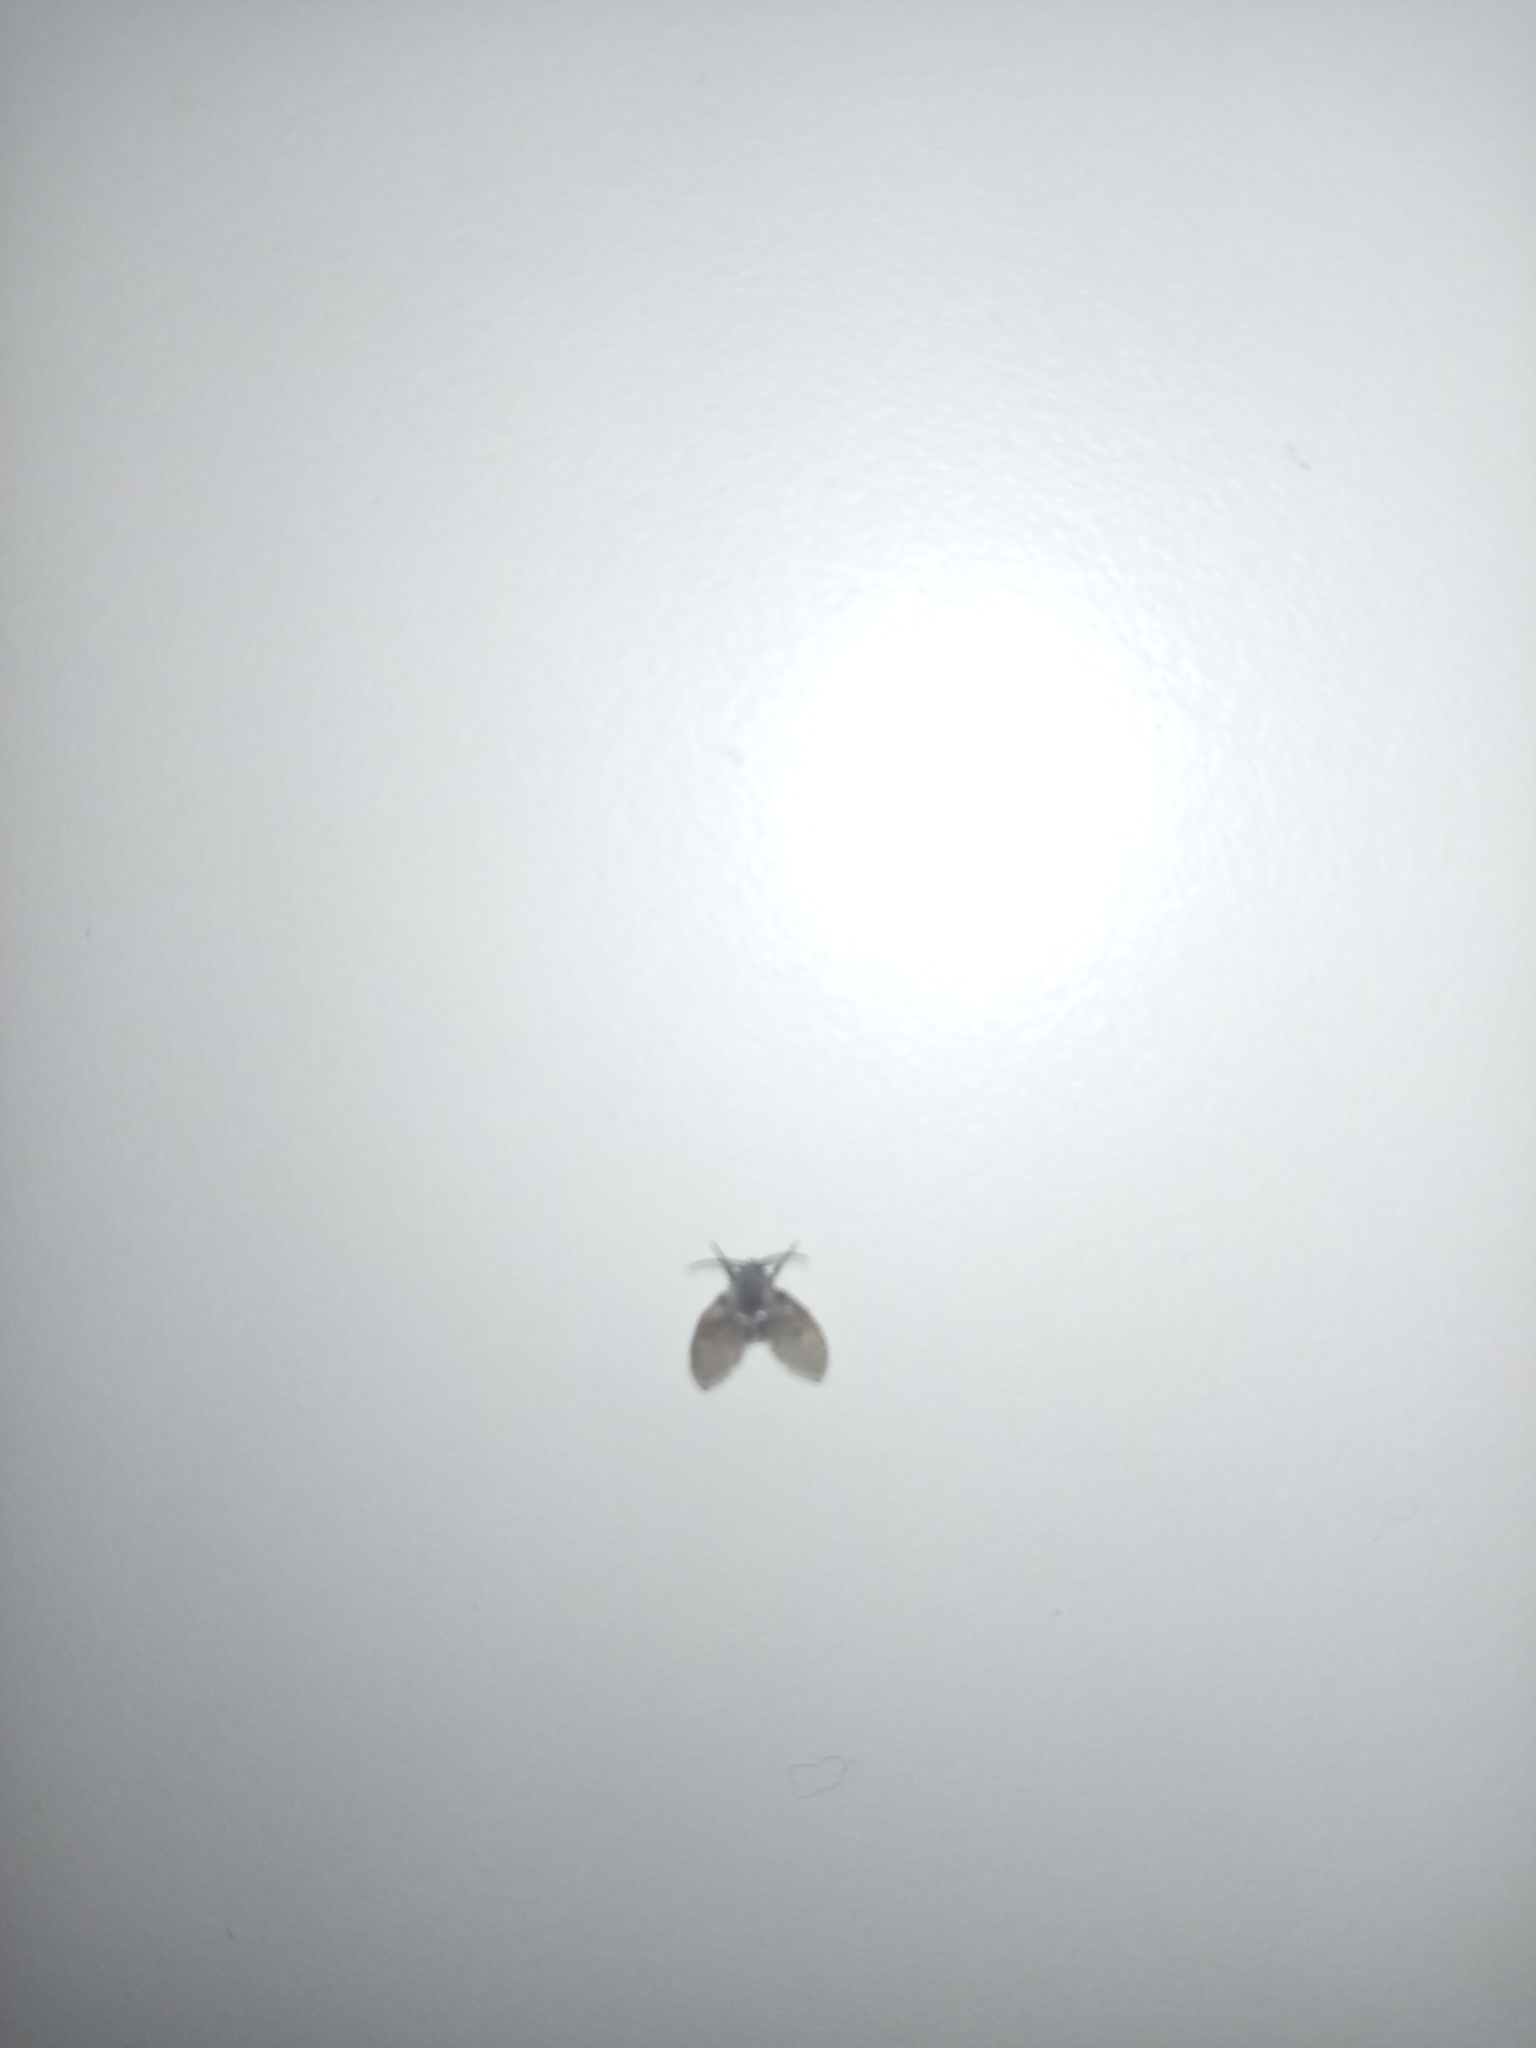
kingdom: Animalia
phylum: Arthropoda
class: Insecta
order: Diptera
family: Psychodidae
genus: Clogmia
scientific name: Clogmia albipunctatus
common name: White-spotted moth fly
